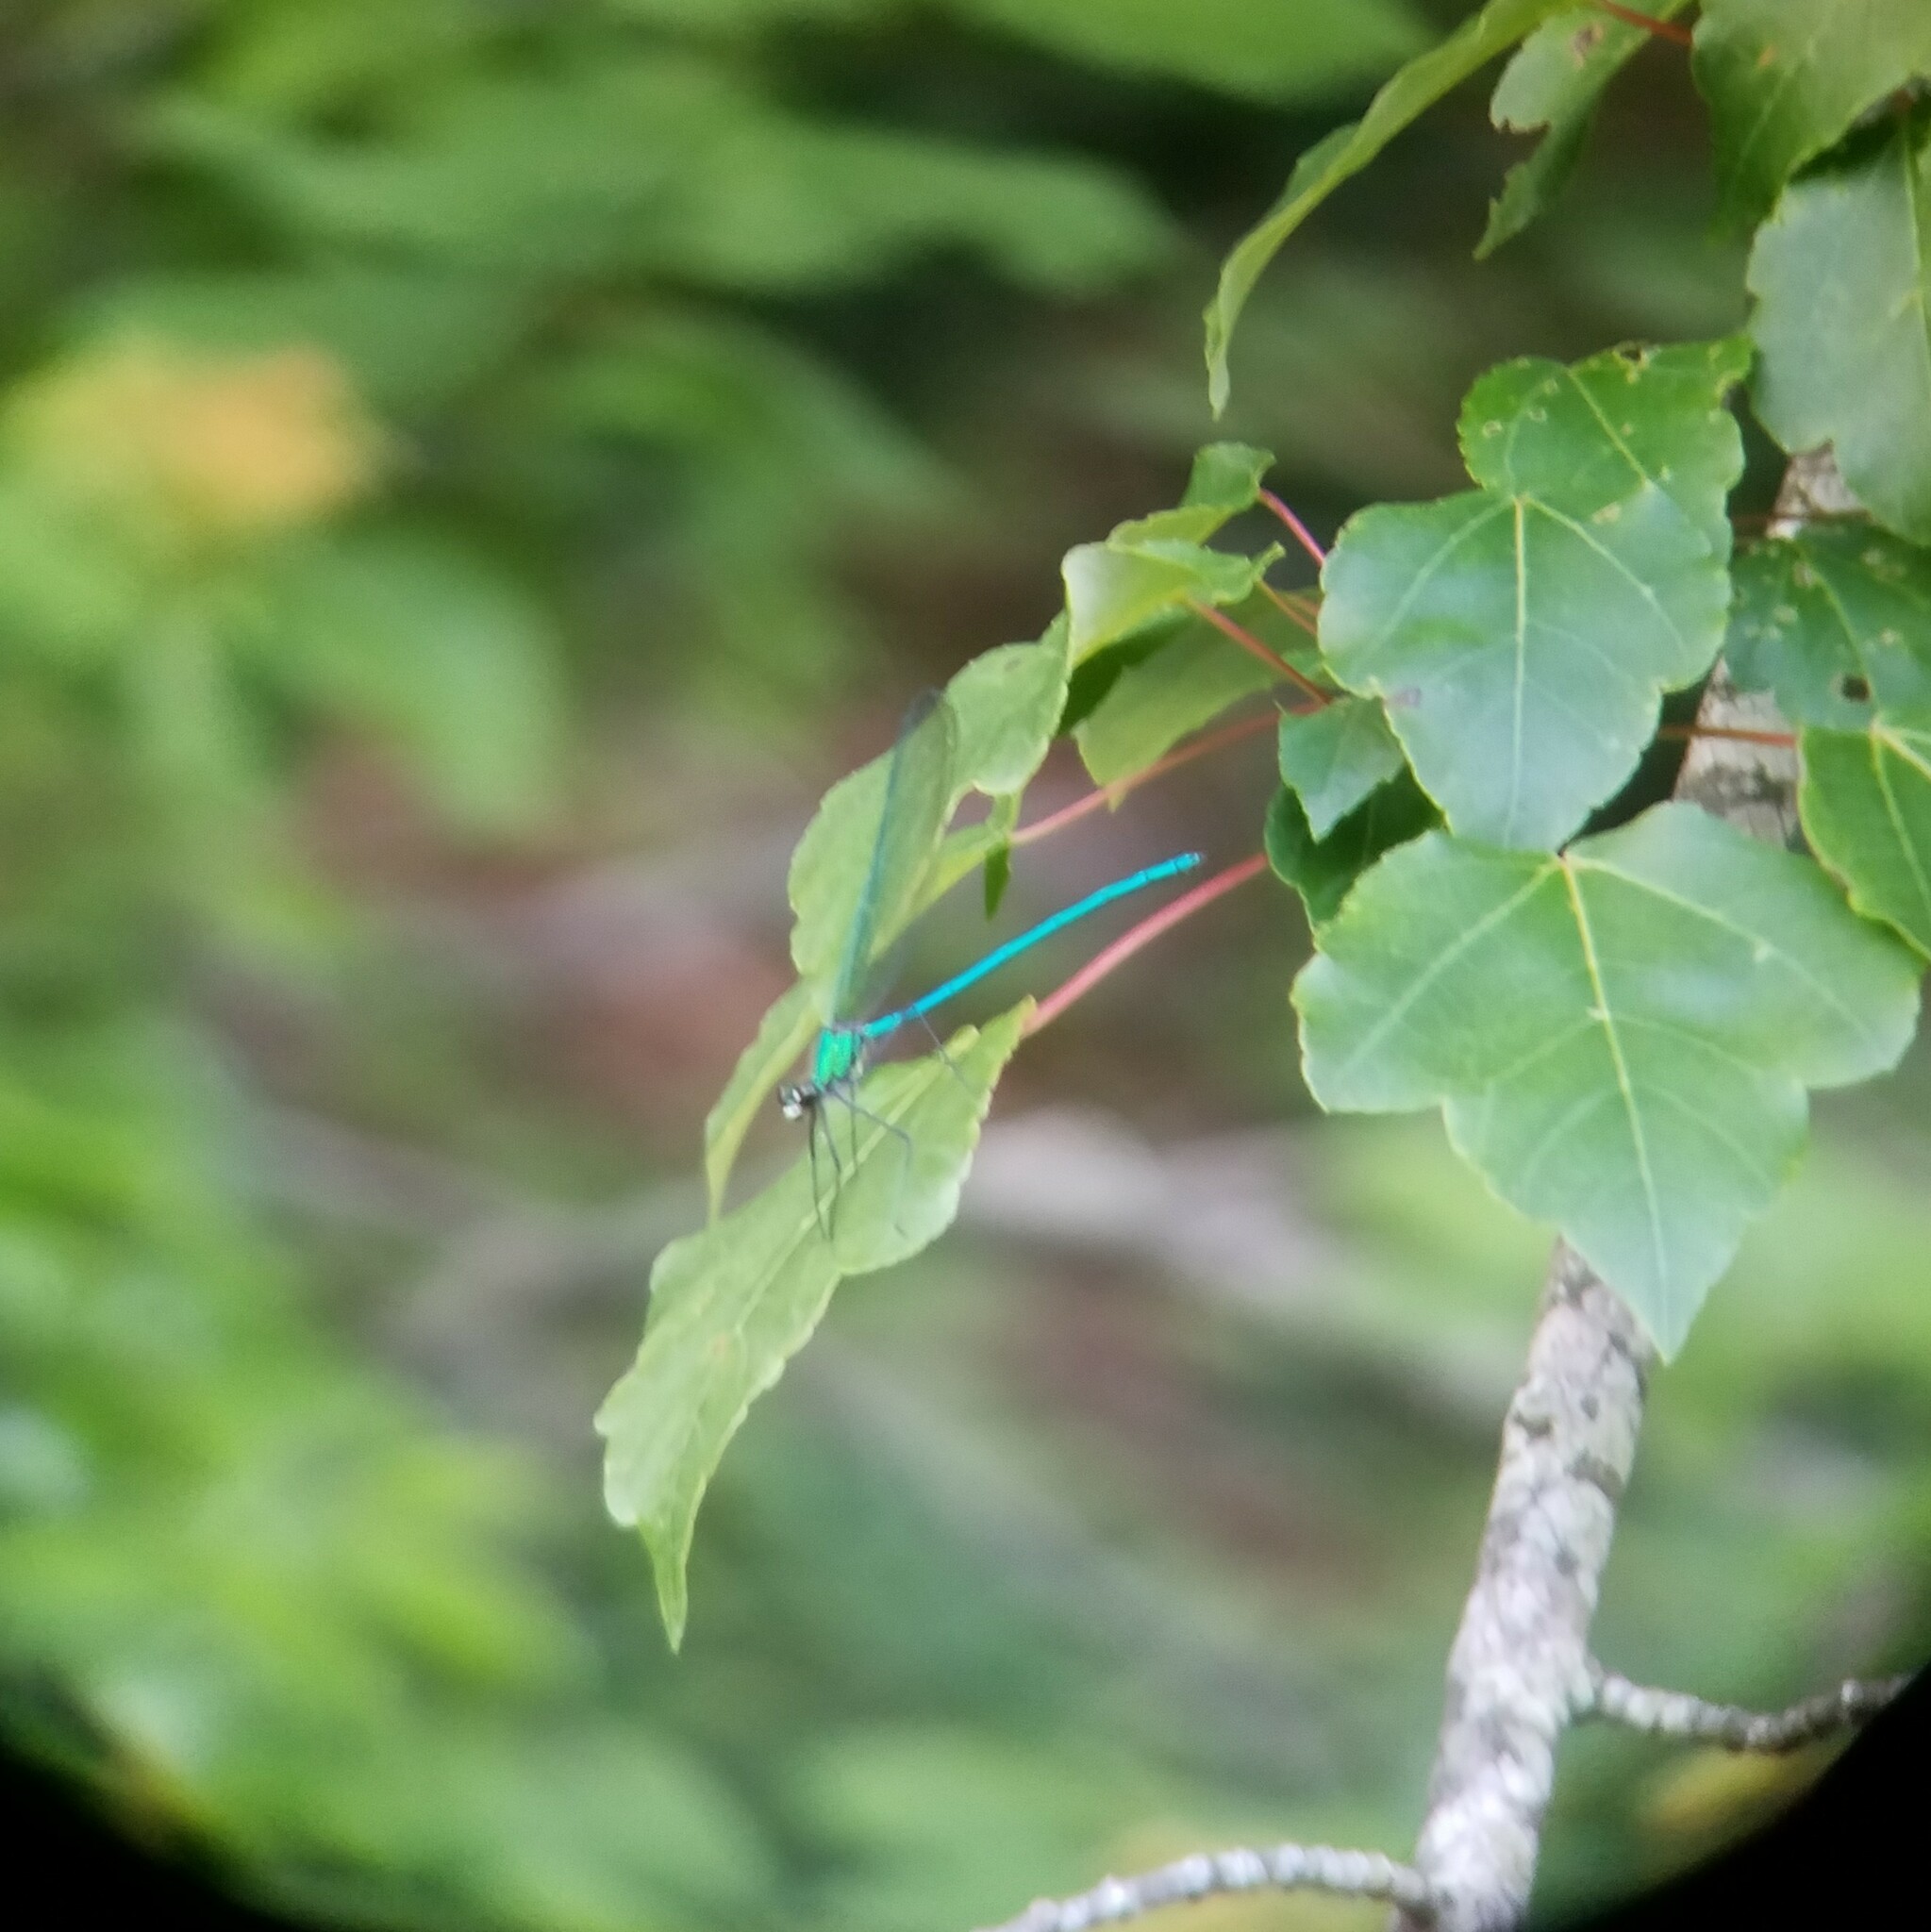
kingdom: Animalia
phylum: Arthropoda
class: Insecta
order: Odonata
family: Calopterygidae
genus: Calopteryx
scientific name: Calopteryx angustipennis
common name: Appalachian jewelwing
